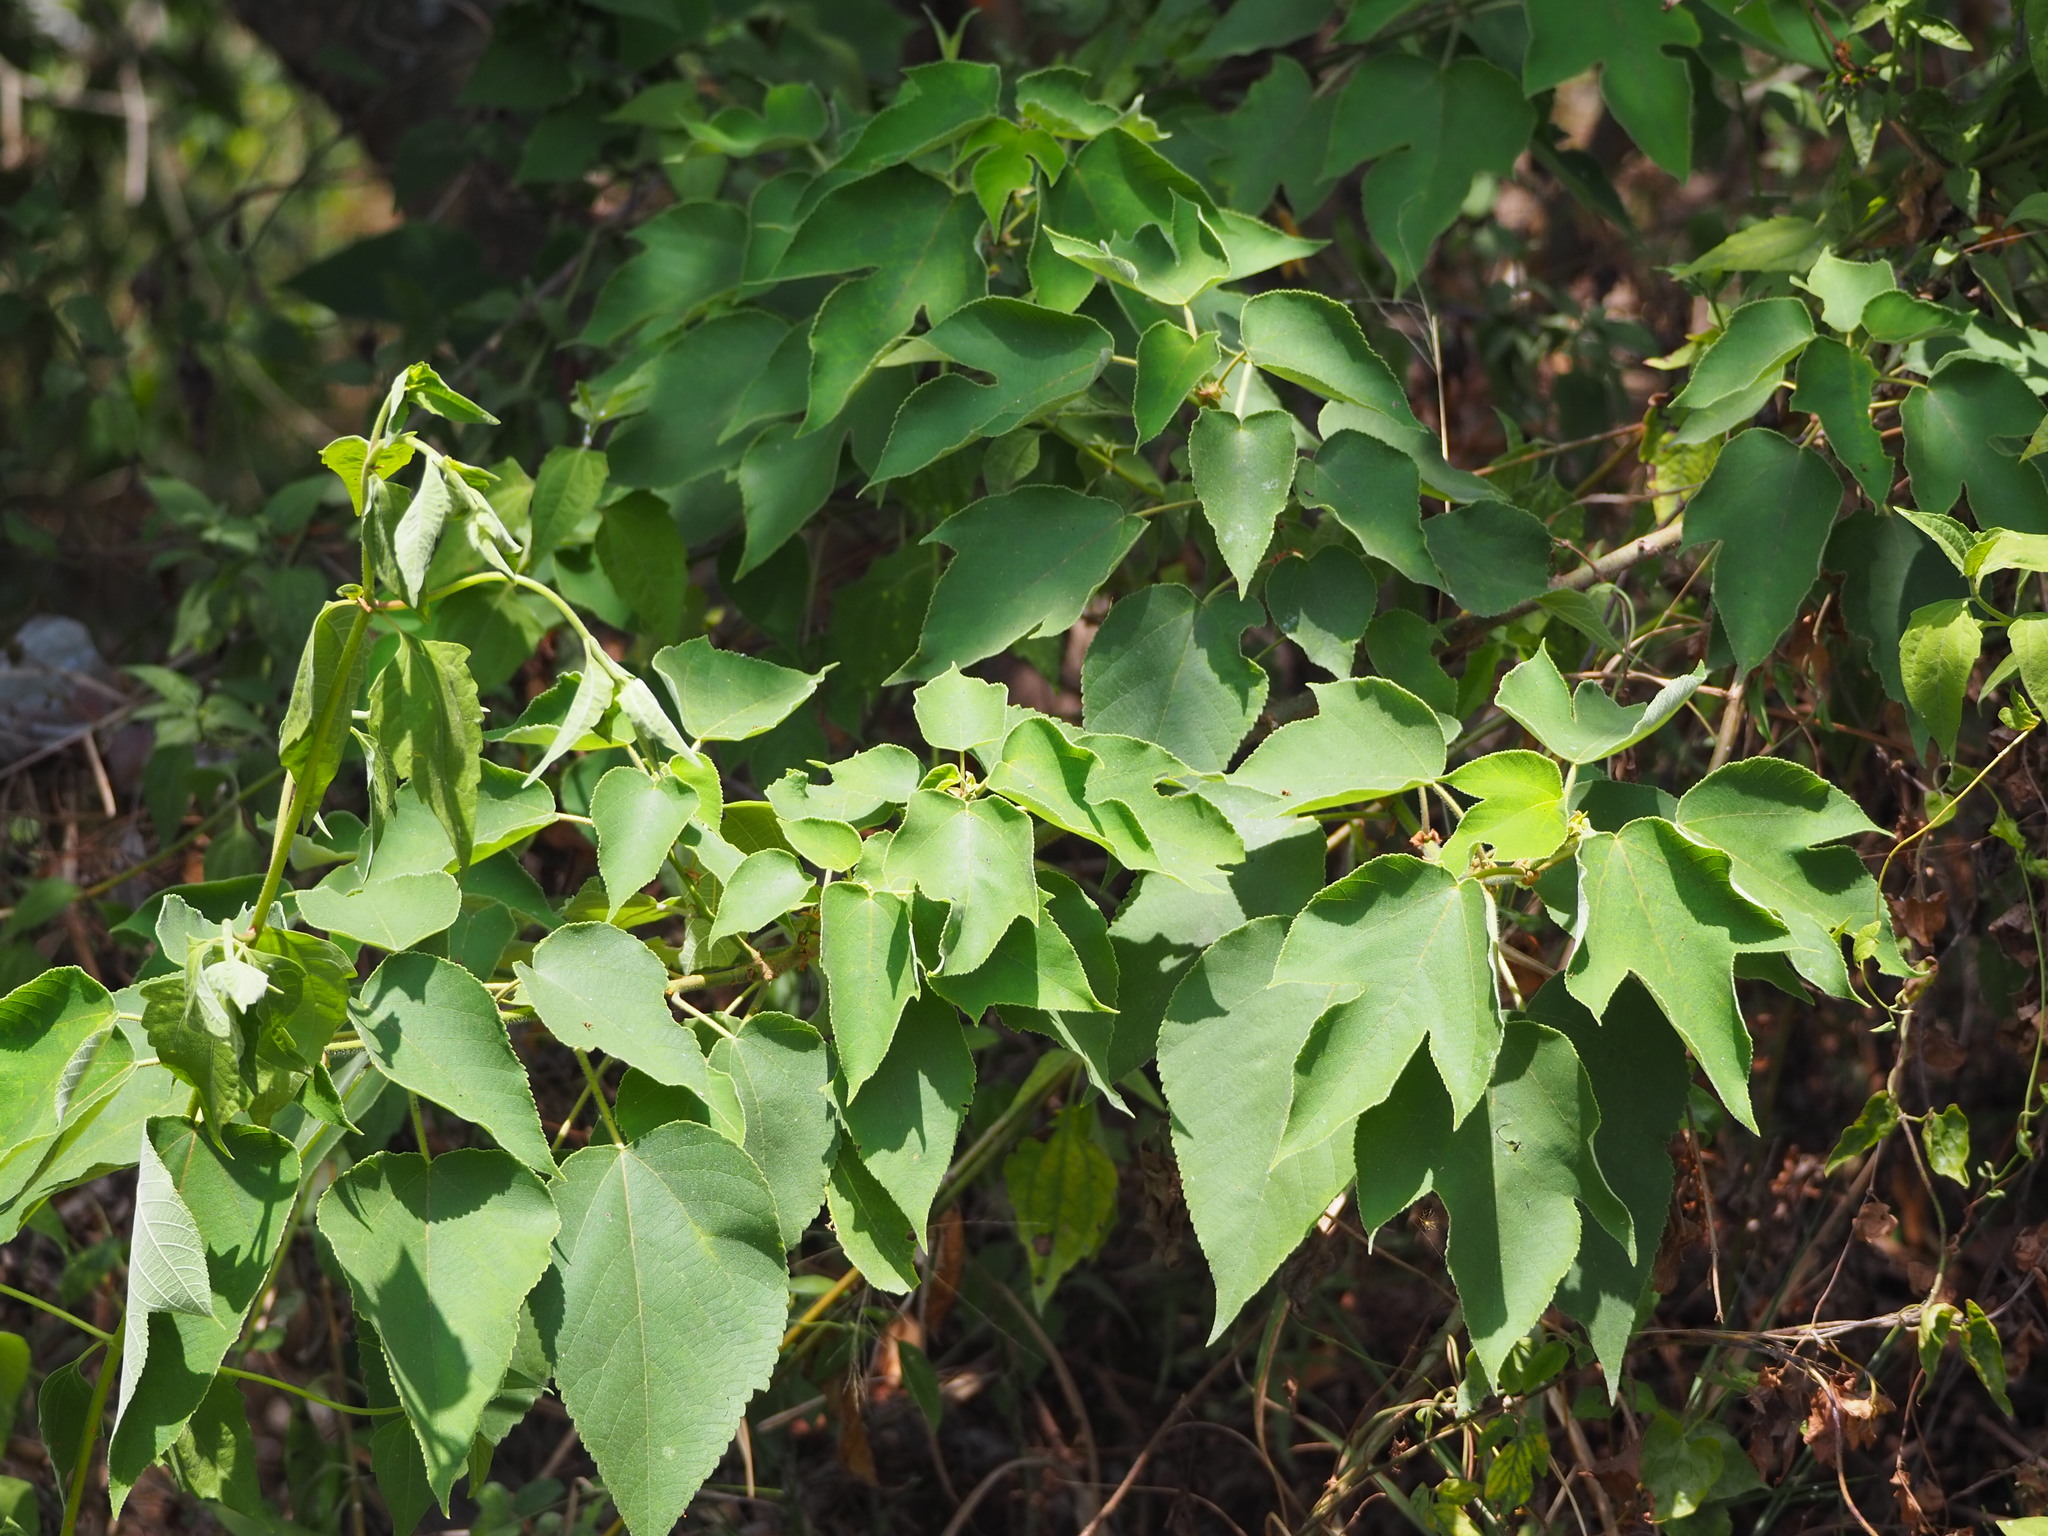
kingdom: Plantae
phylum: Tracheophyta
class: Magnoliopsida
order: Rosales
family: Moraceae
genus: Broussonetia
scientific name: Broussonetia papyrifera
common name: Paper mulberry
